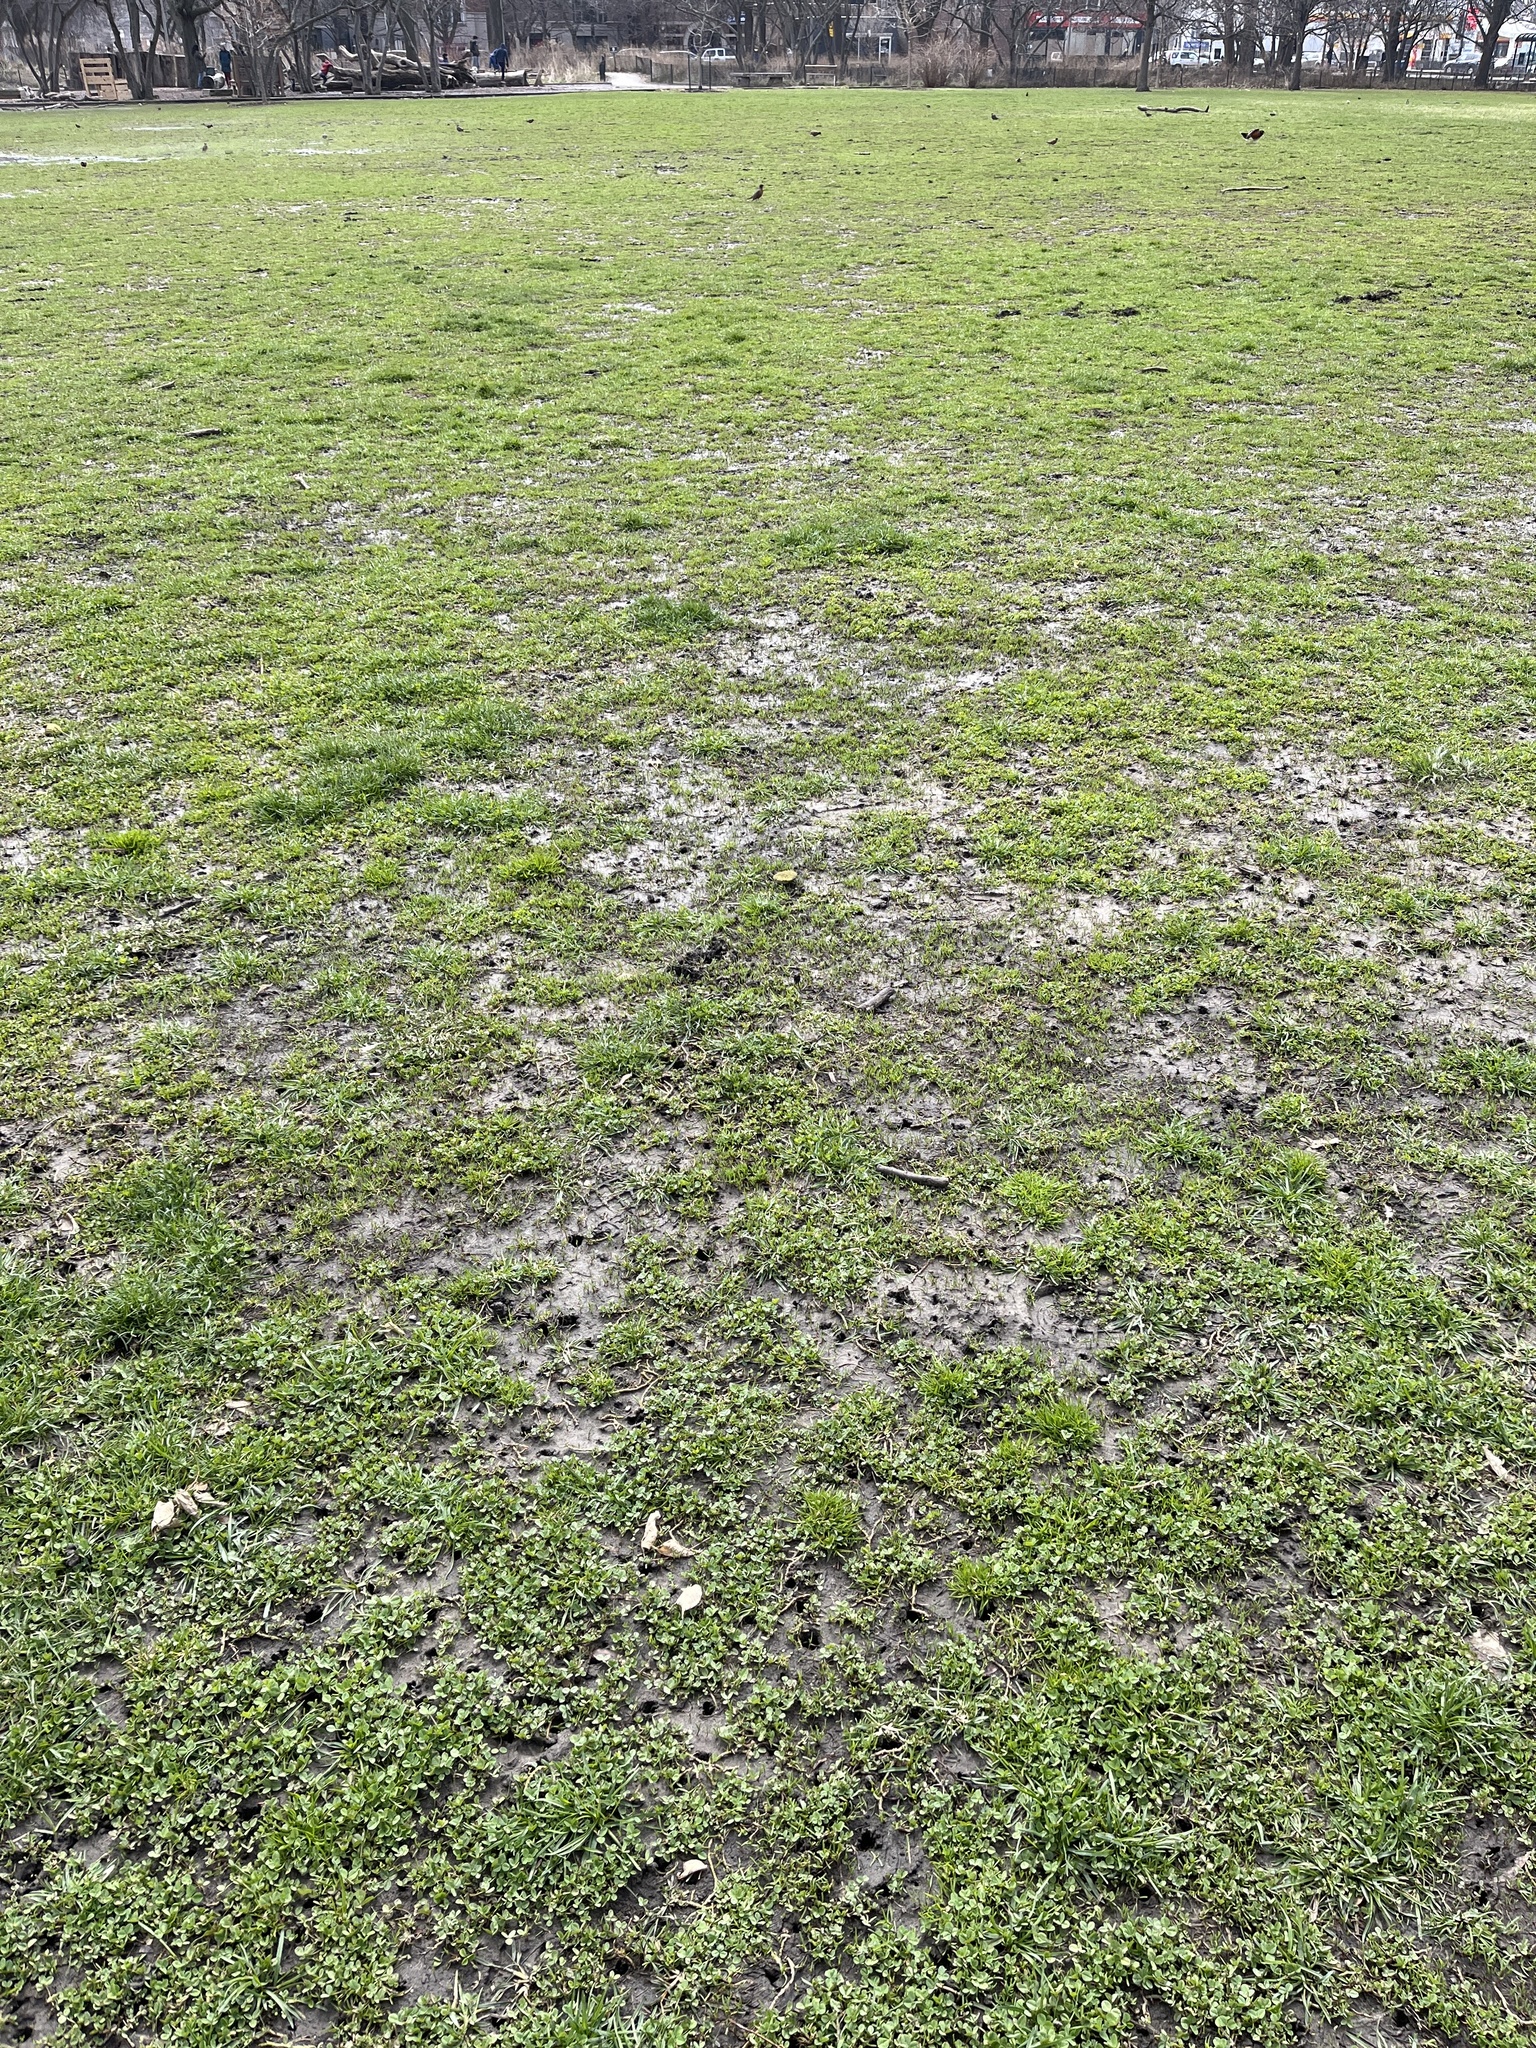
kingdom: Plantae
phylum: Tracheophyta
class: Magnoliopsida
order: Fabales
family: Fabaceae
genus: Trifolium
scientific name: Trifolium repens
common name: White clover
